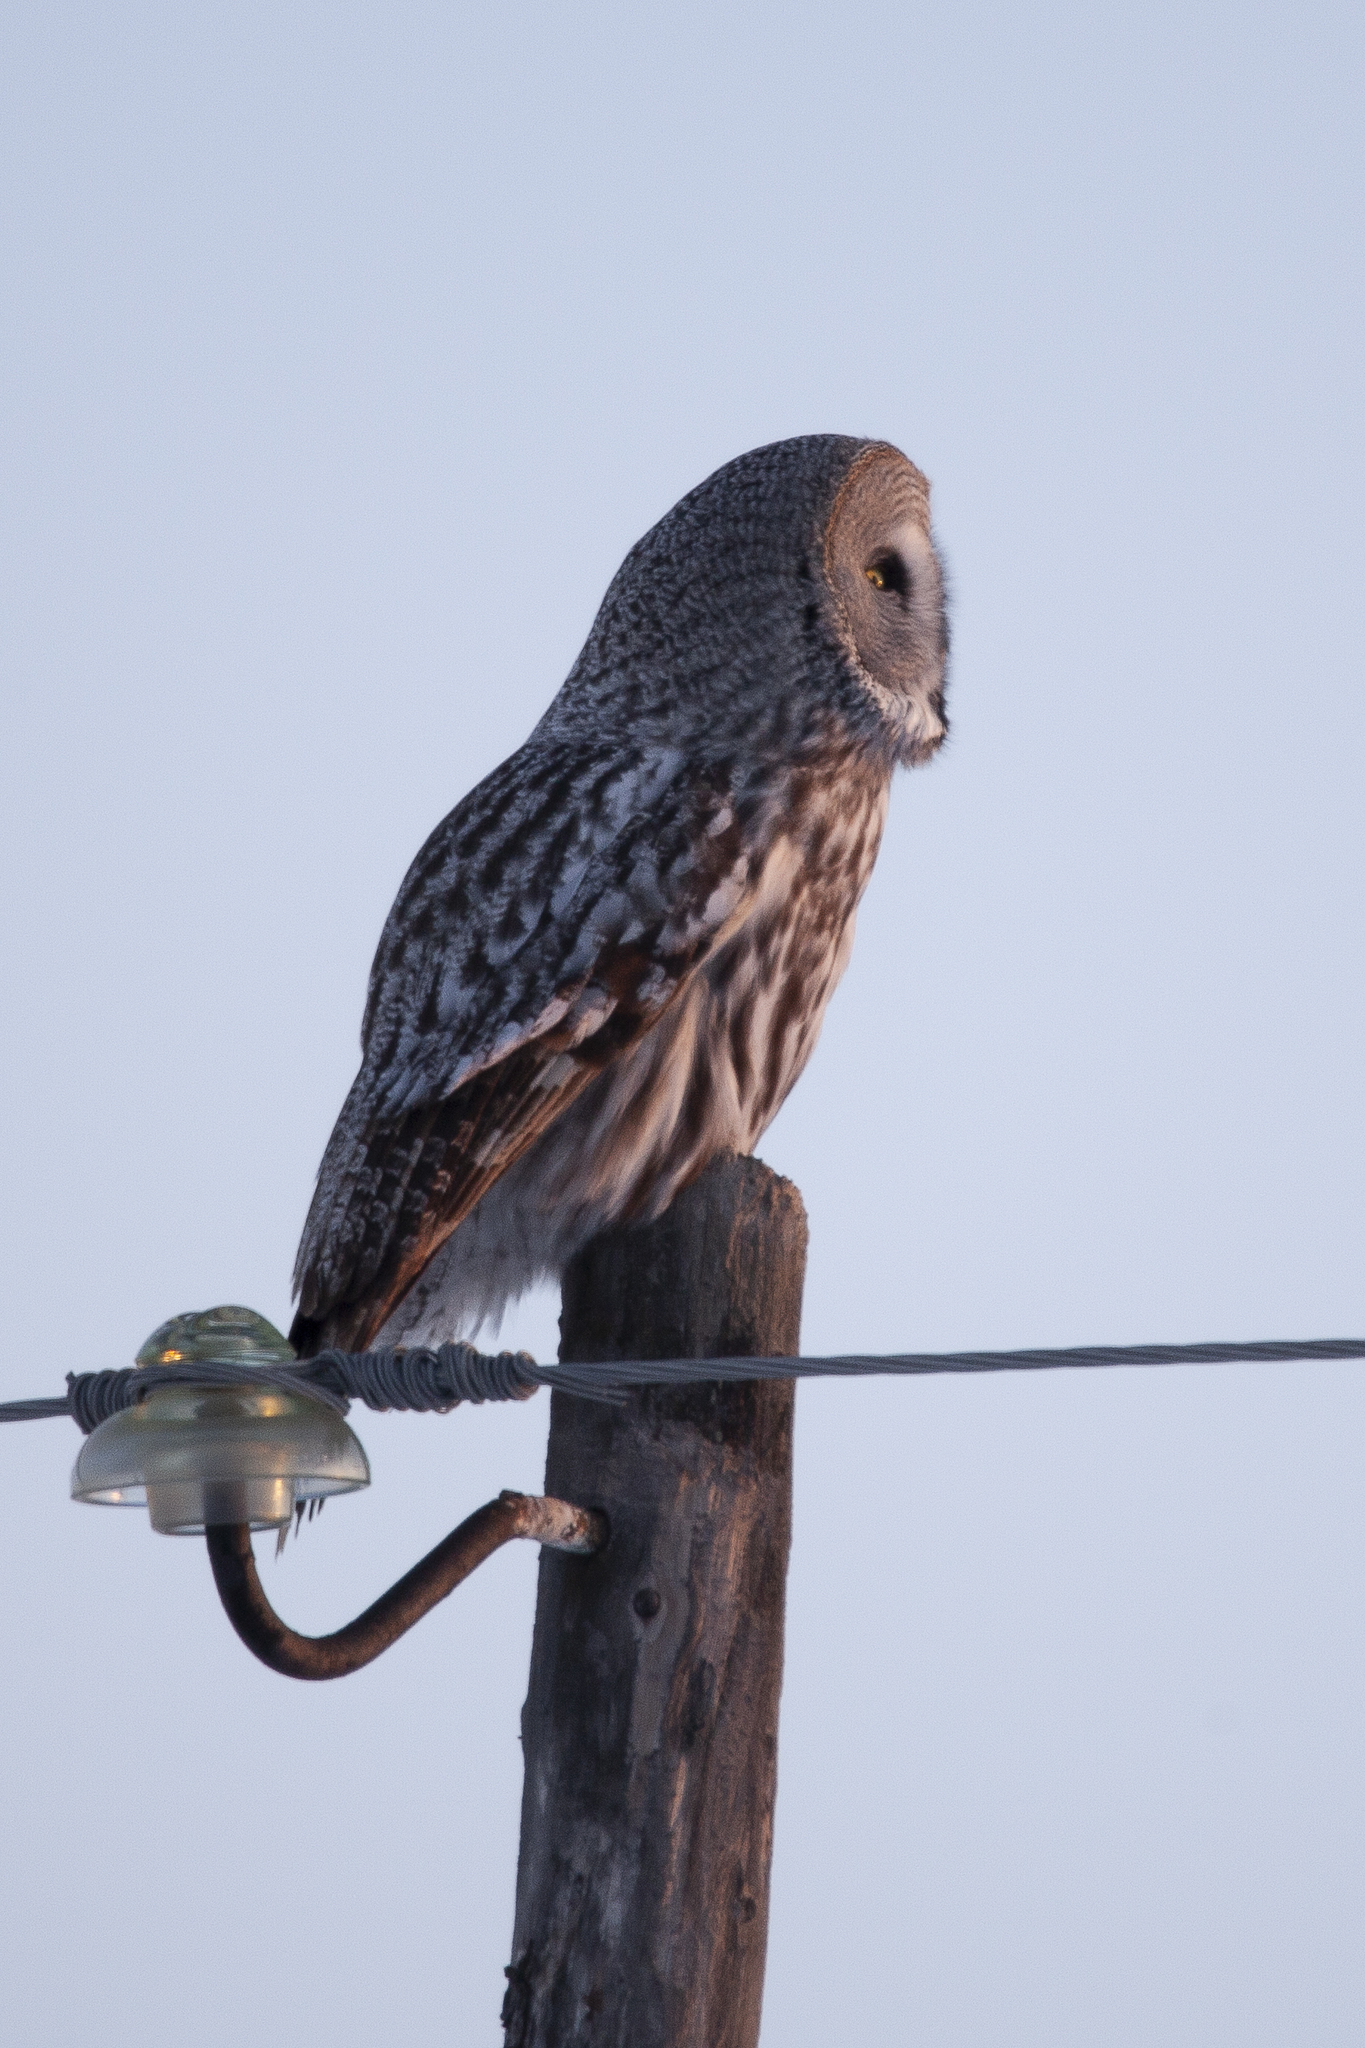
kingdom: Animalia
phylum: Chordata
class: Aves
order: Strigiformes
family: Strigidae
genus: Strix
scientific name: Strix nebulosa
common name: Great grey owl
